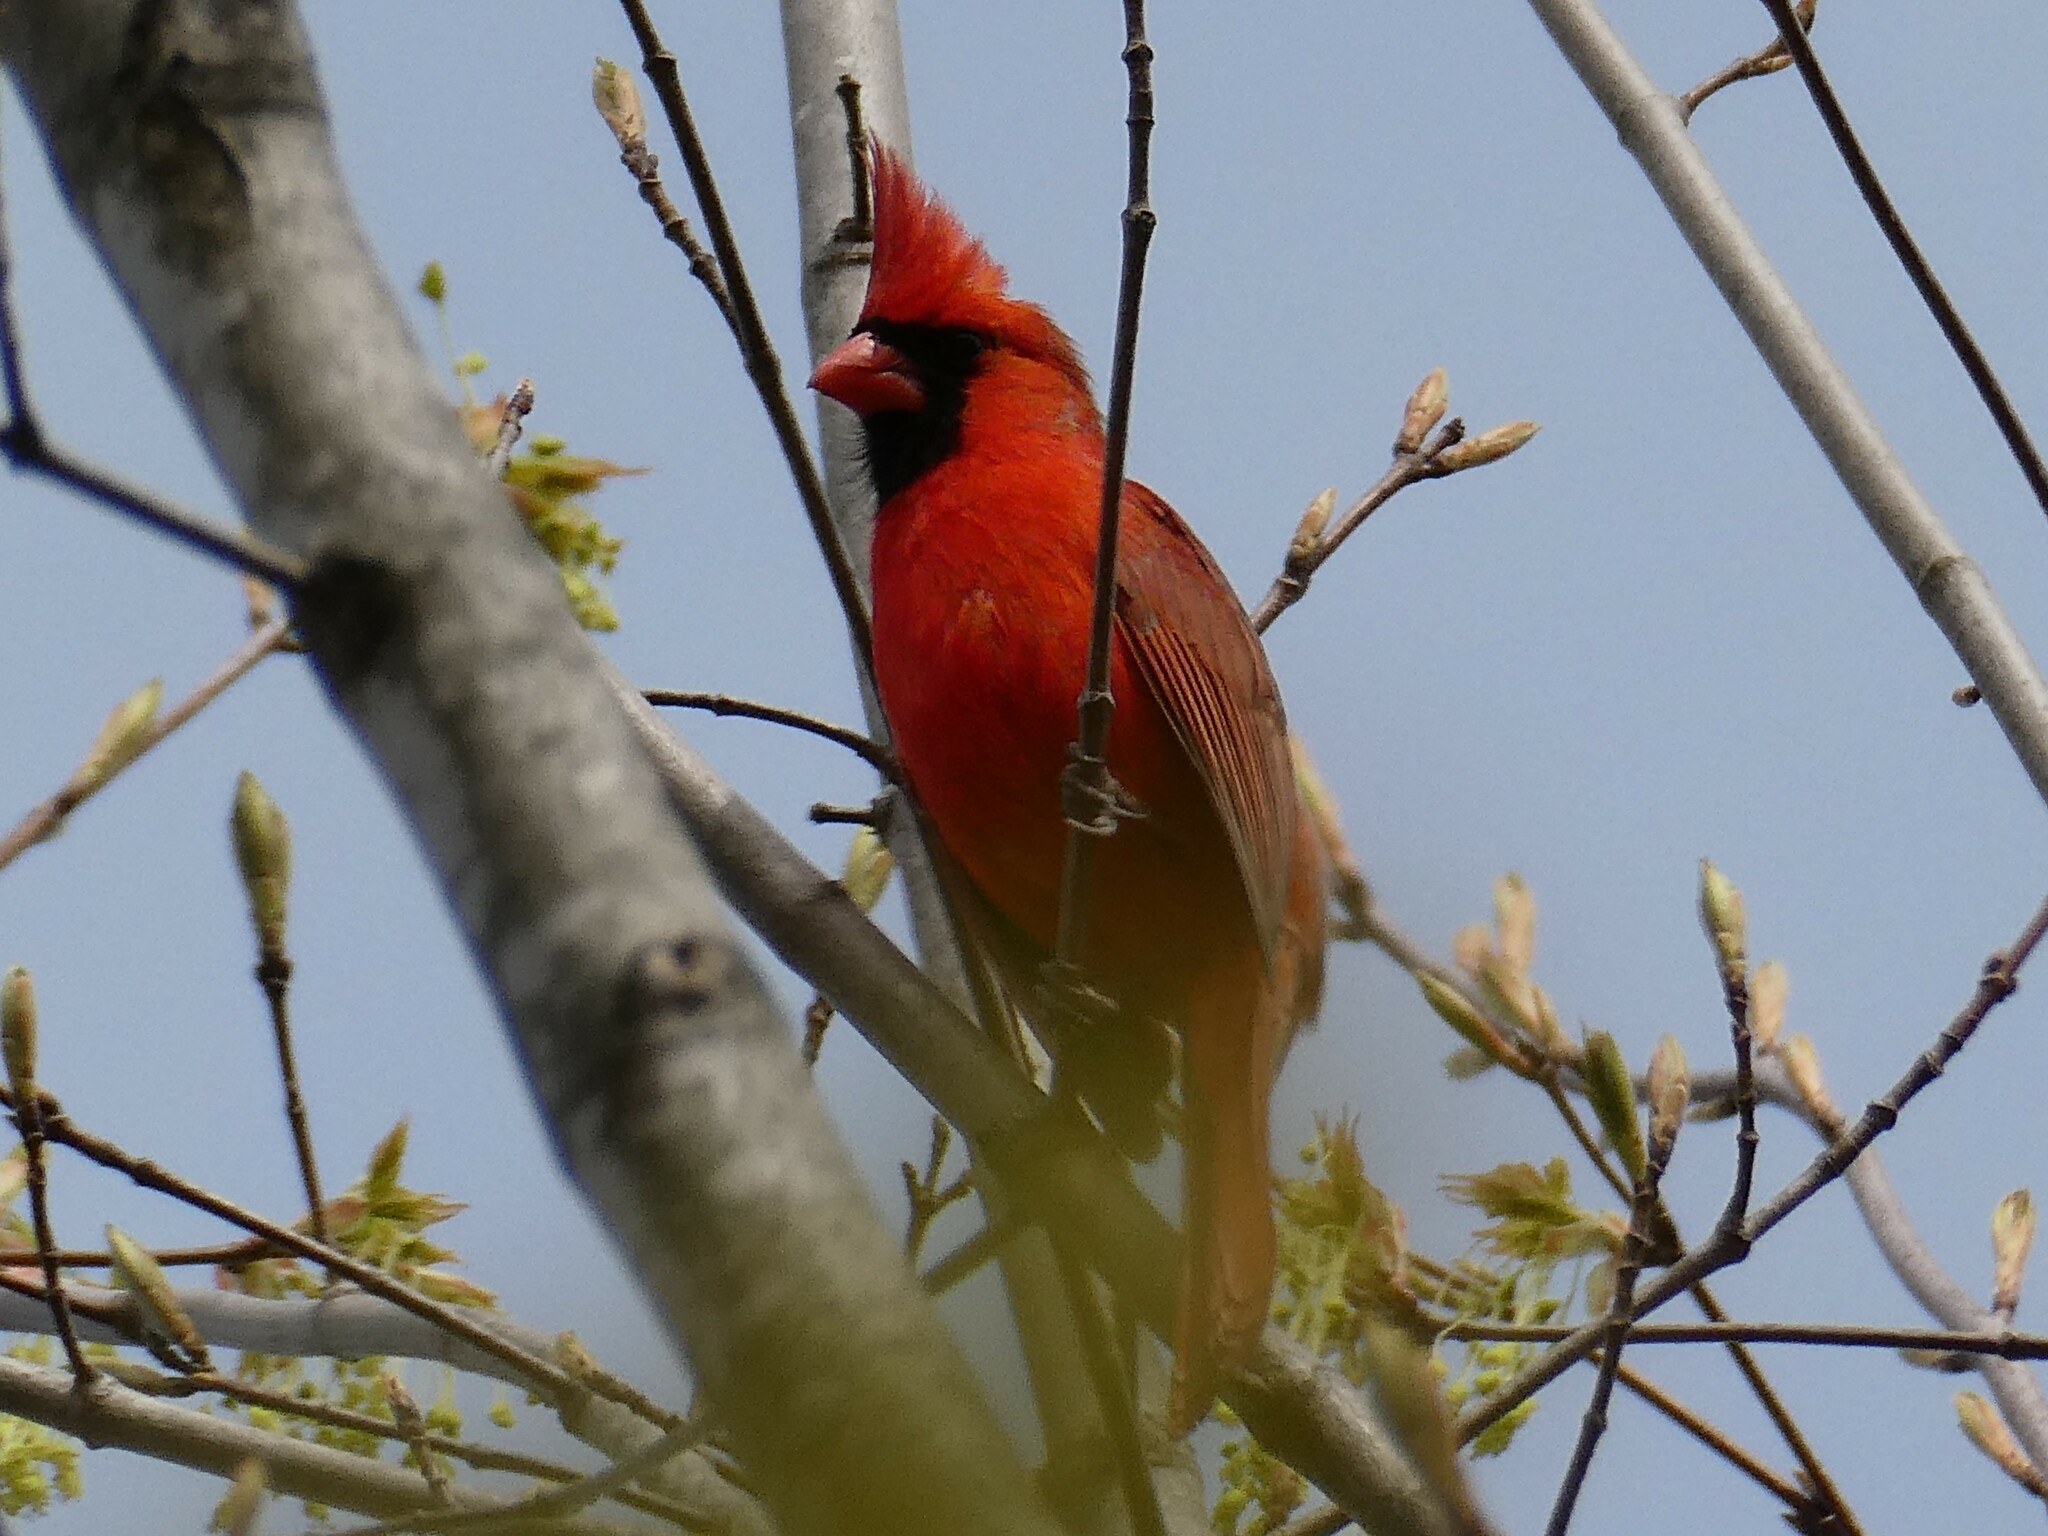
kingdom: Animalia
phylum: Chordata
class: Aves
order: Passeriformes
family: Cardinalidae
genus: Cardinalis
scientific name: Cardinalis cardinalis
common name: Northern cardinal
